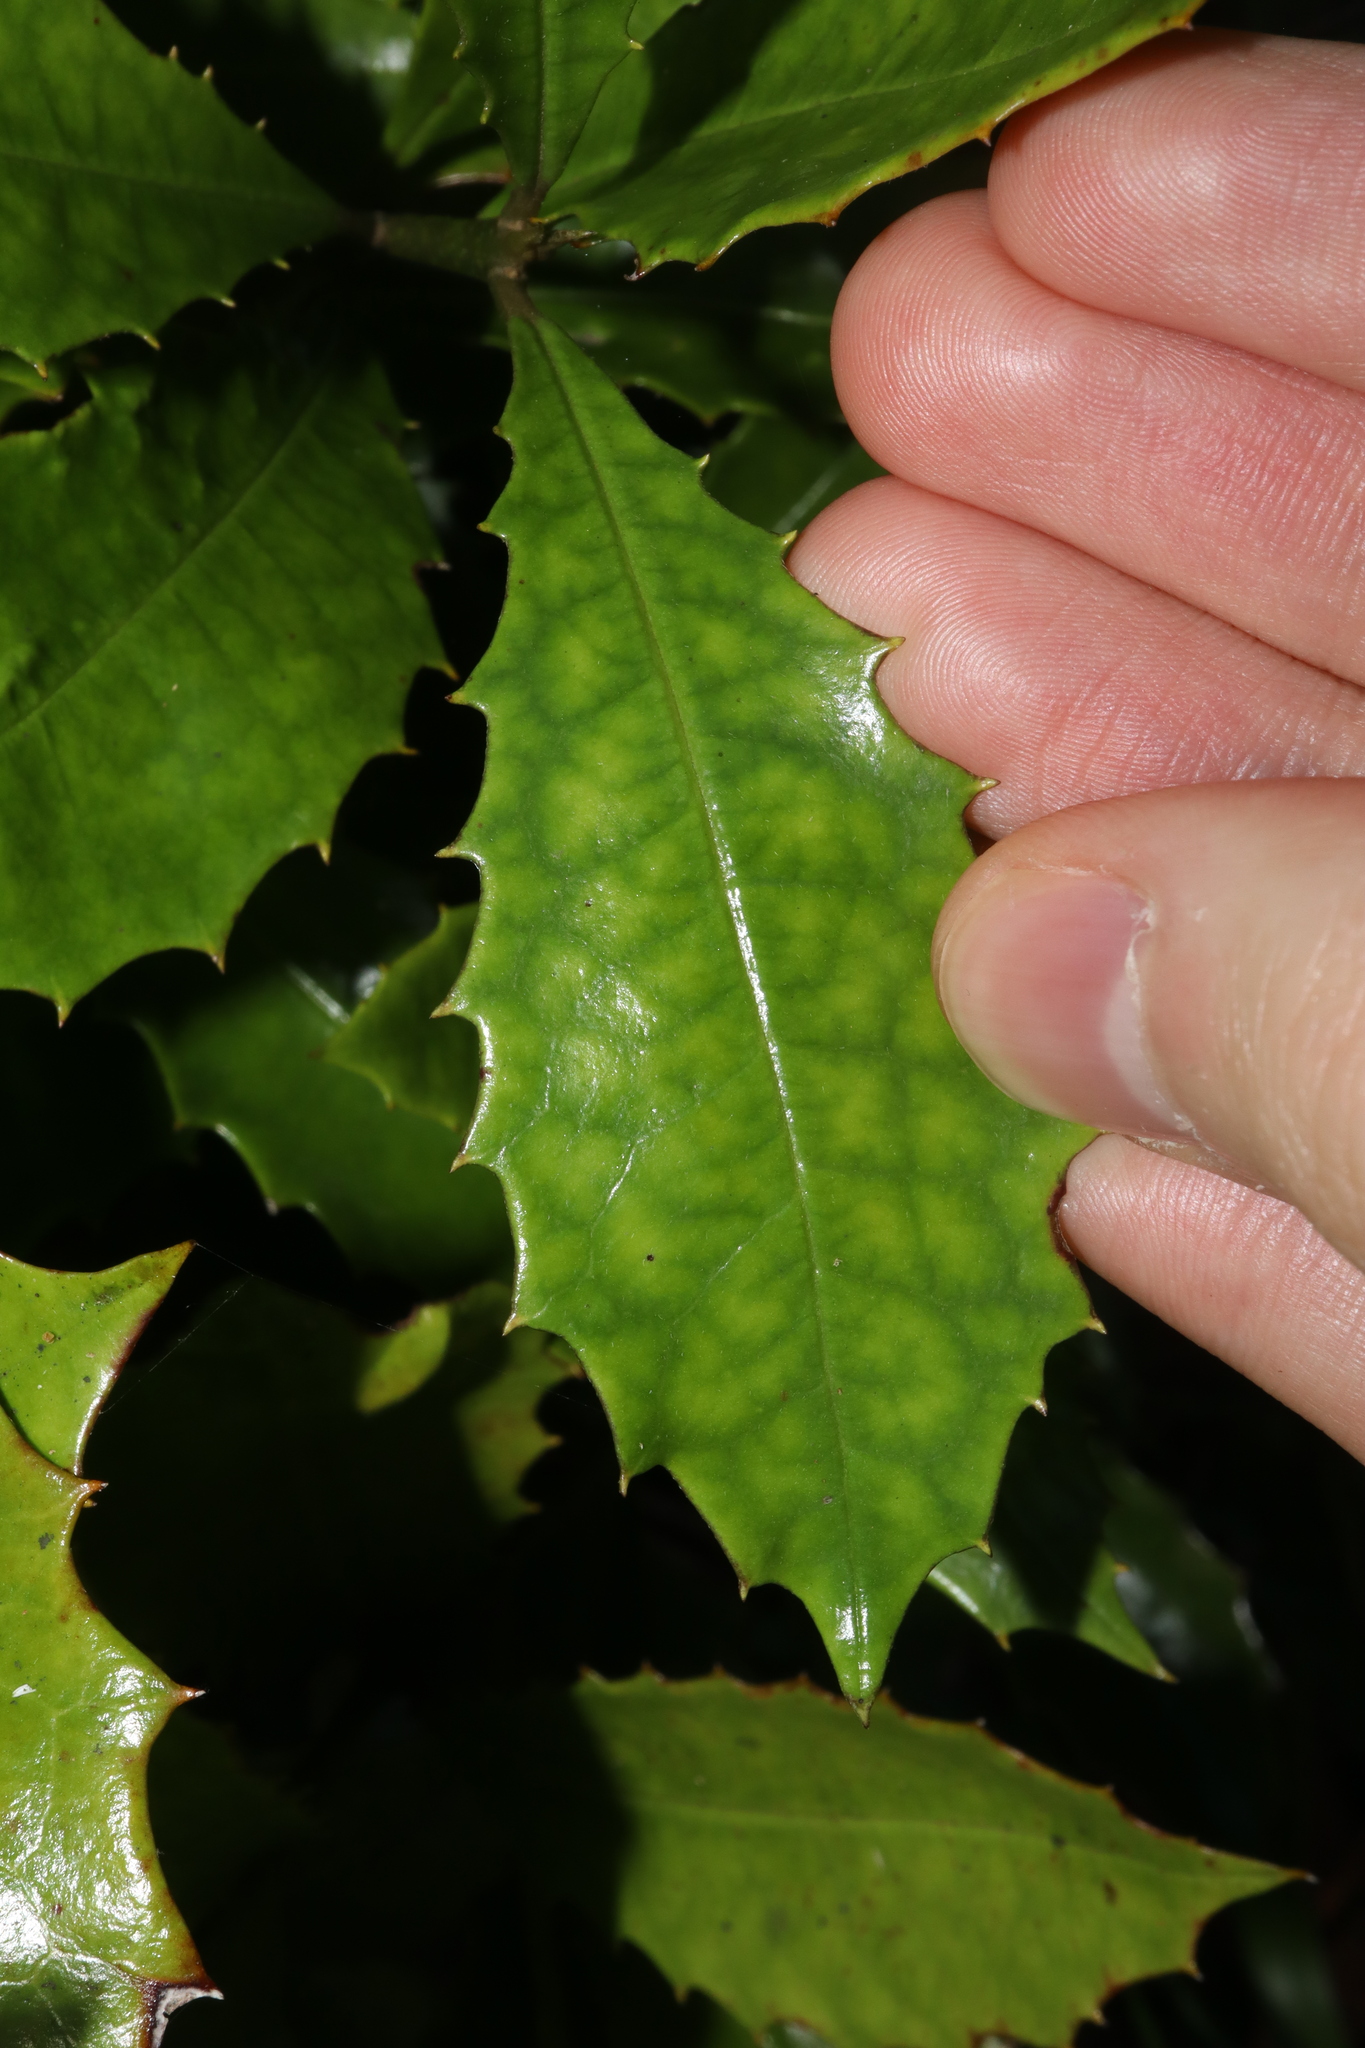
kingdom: Plantae
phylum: Tracheophyta
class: Magnoliopsida
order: Escalloniales
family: Escalloniaceae
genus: Polyosma
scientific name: Polyosma cunninghamii
